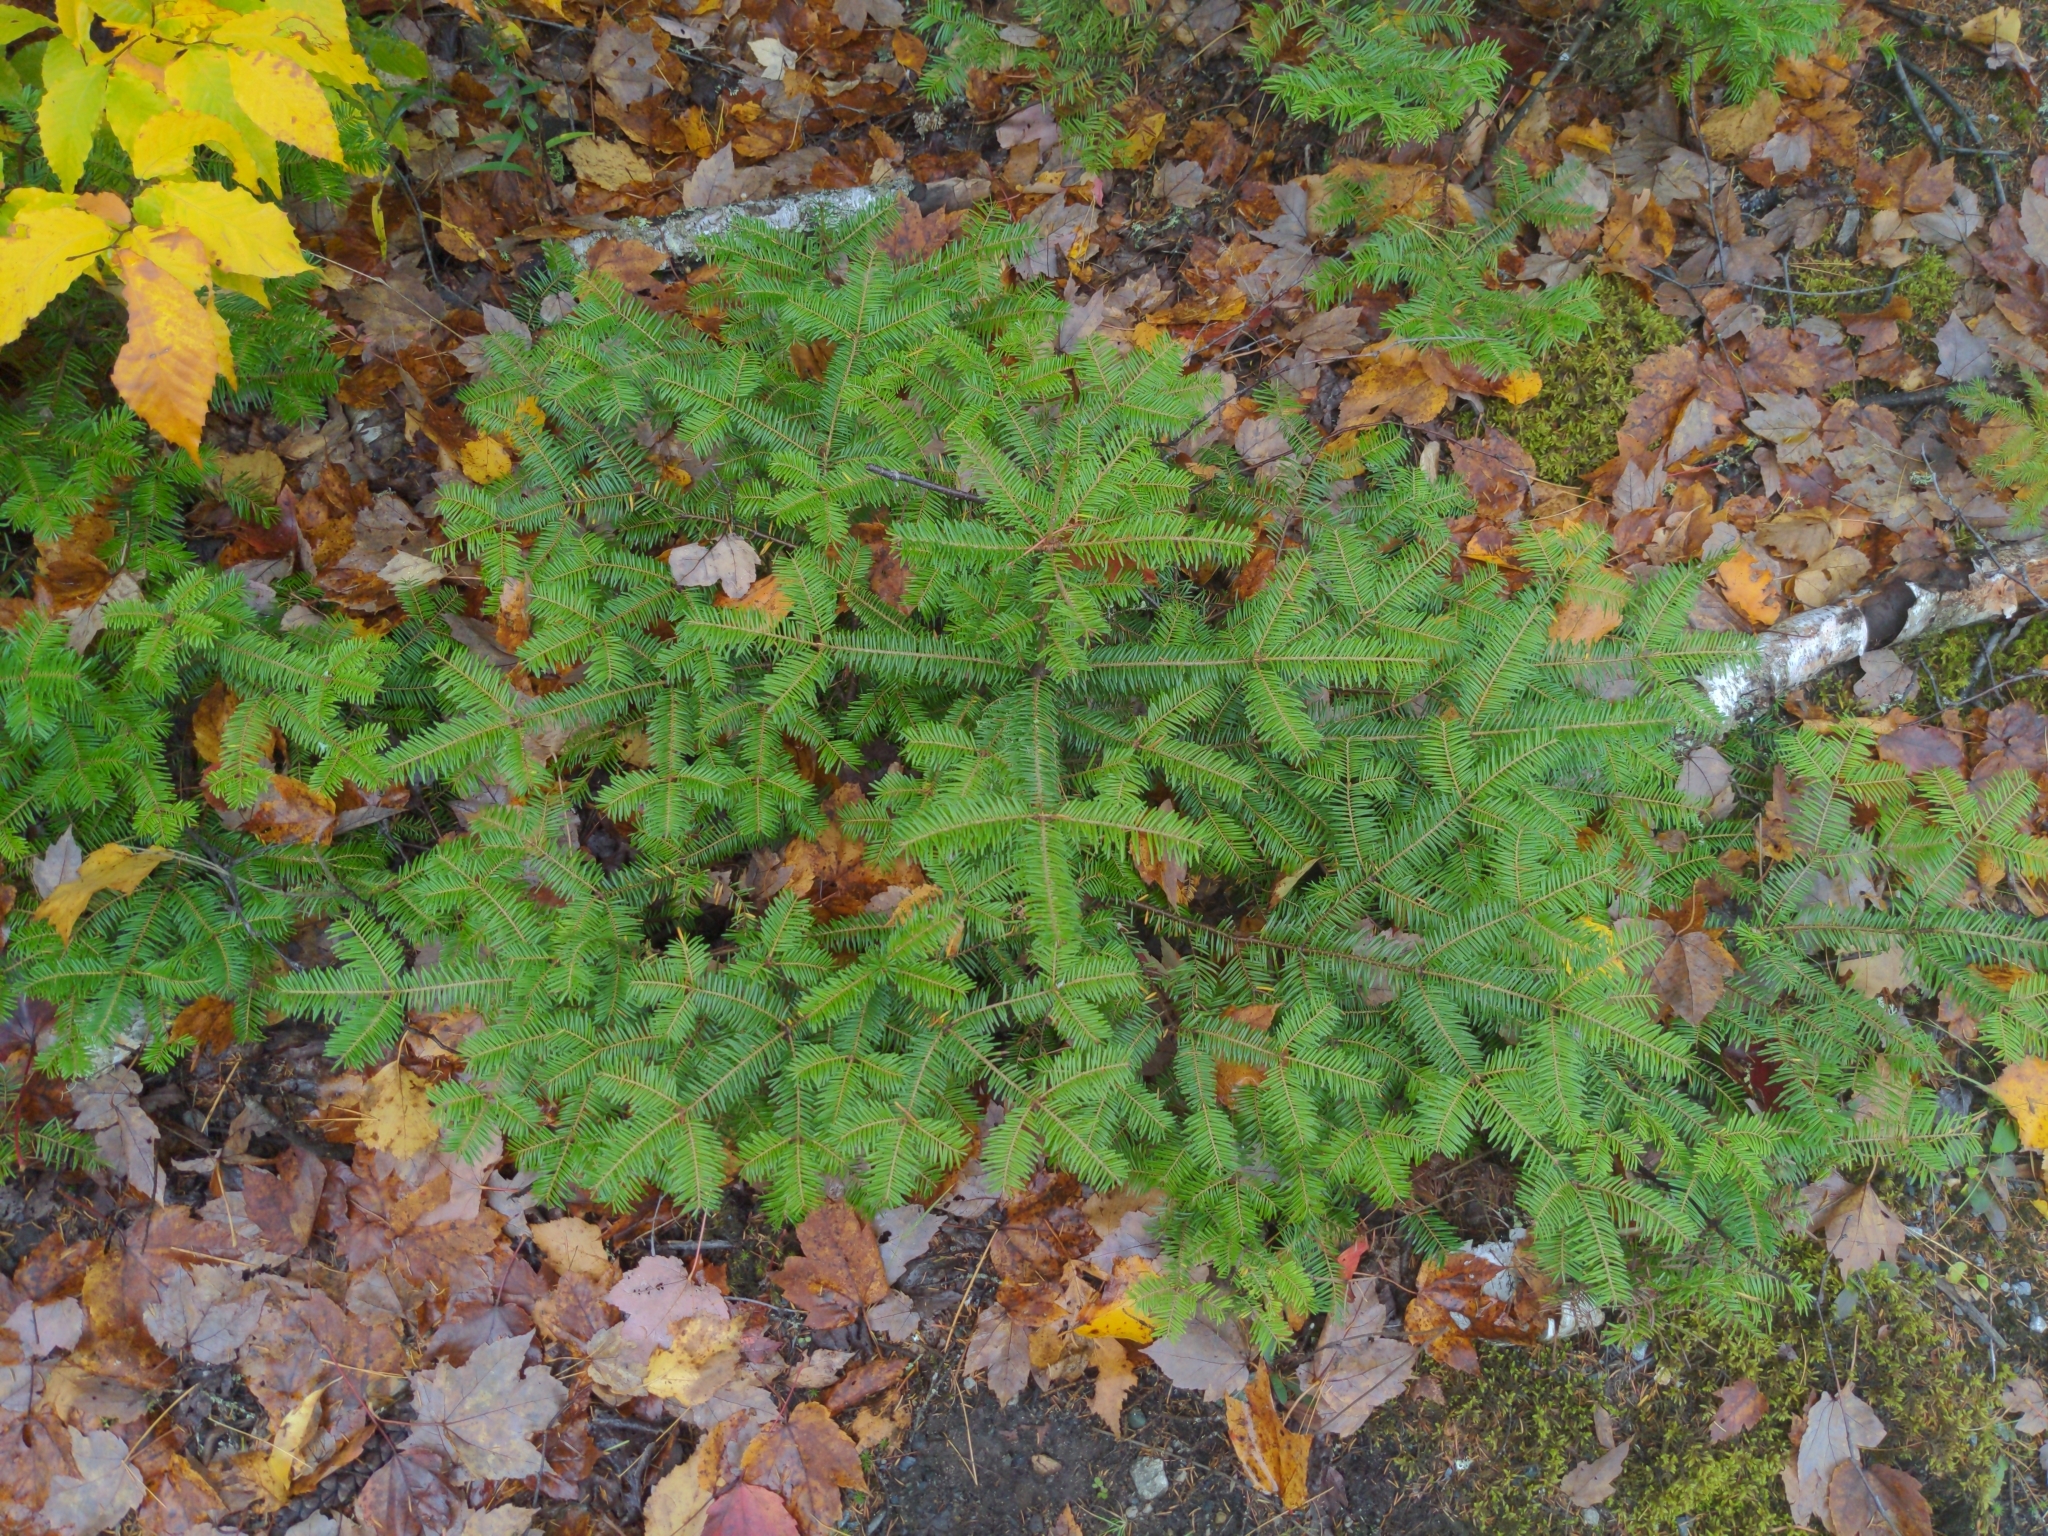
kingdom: Plantae
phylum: Tracheophyta
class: Pinopsida
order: Pinales
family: Pinaceae
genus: Abies
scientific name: Abies balsamea
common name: Balsam fir
